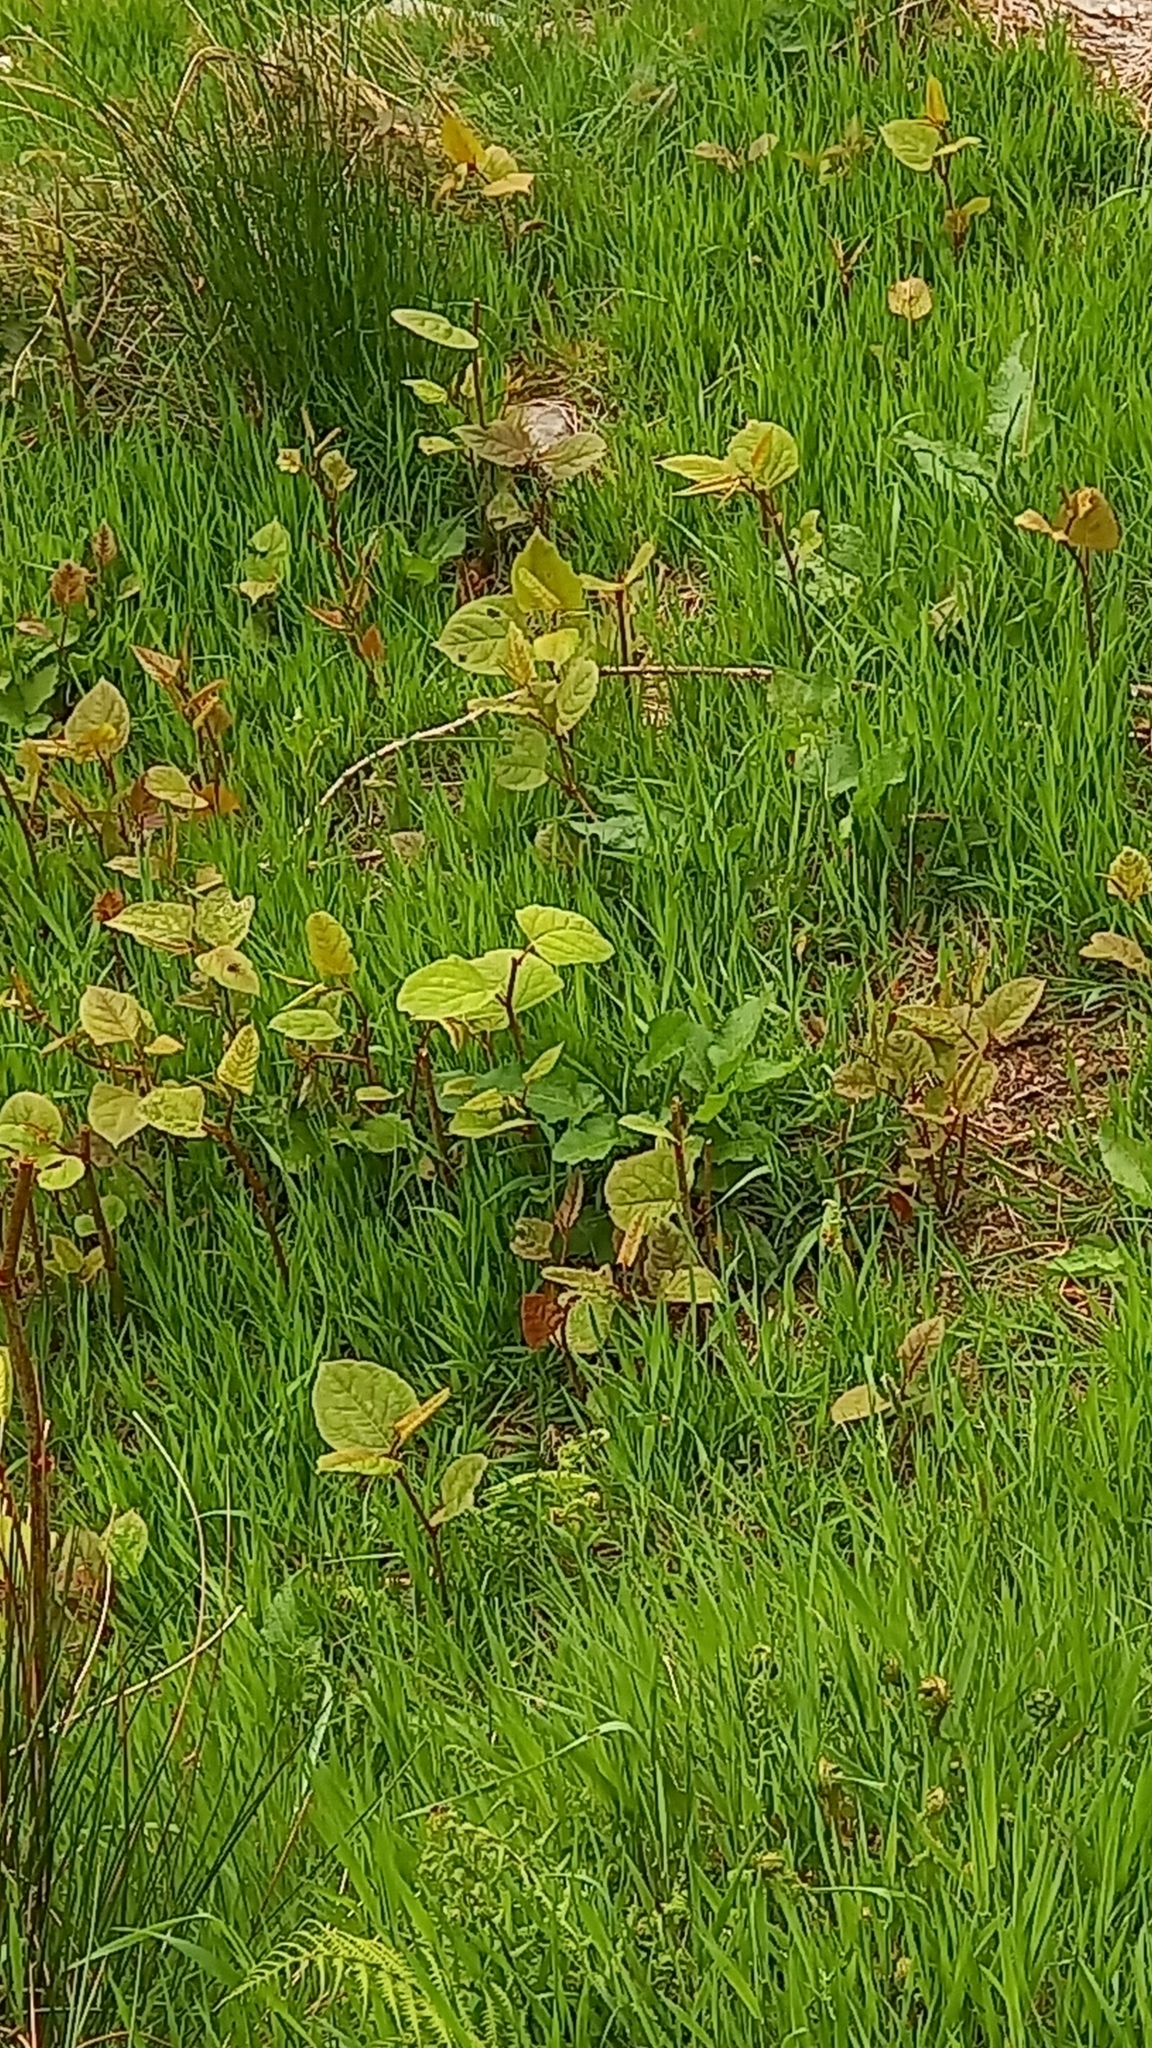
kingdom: Plantae
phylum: Tracheophyta
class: Magnoliopsida
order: Caryophyllales
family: Polygonaceae
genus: Reynoutria
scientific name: Reynoutria japonica
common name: Japanese knotweed
